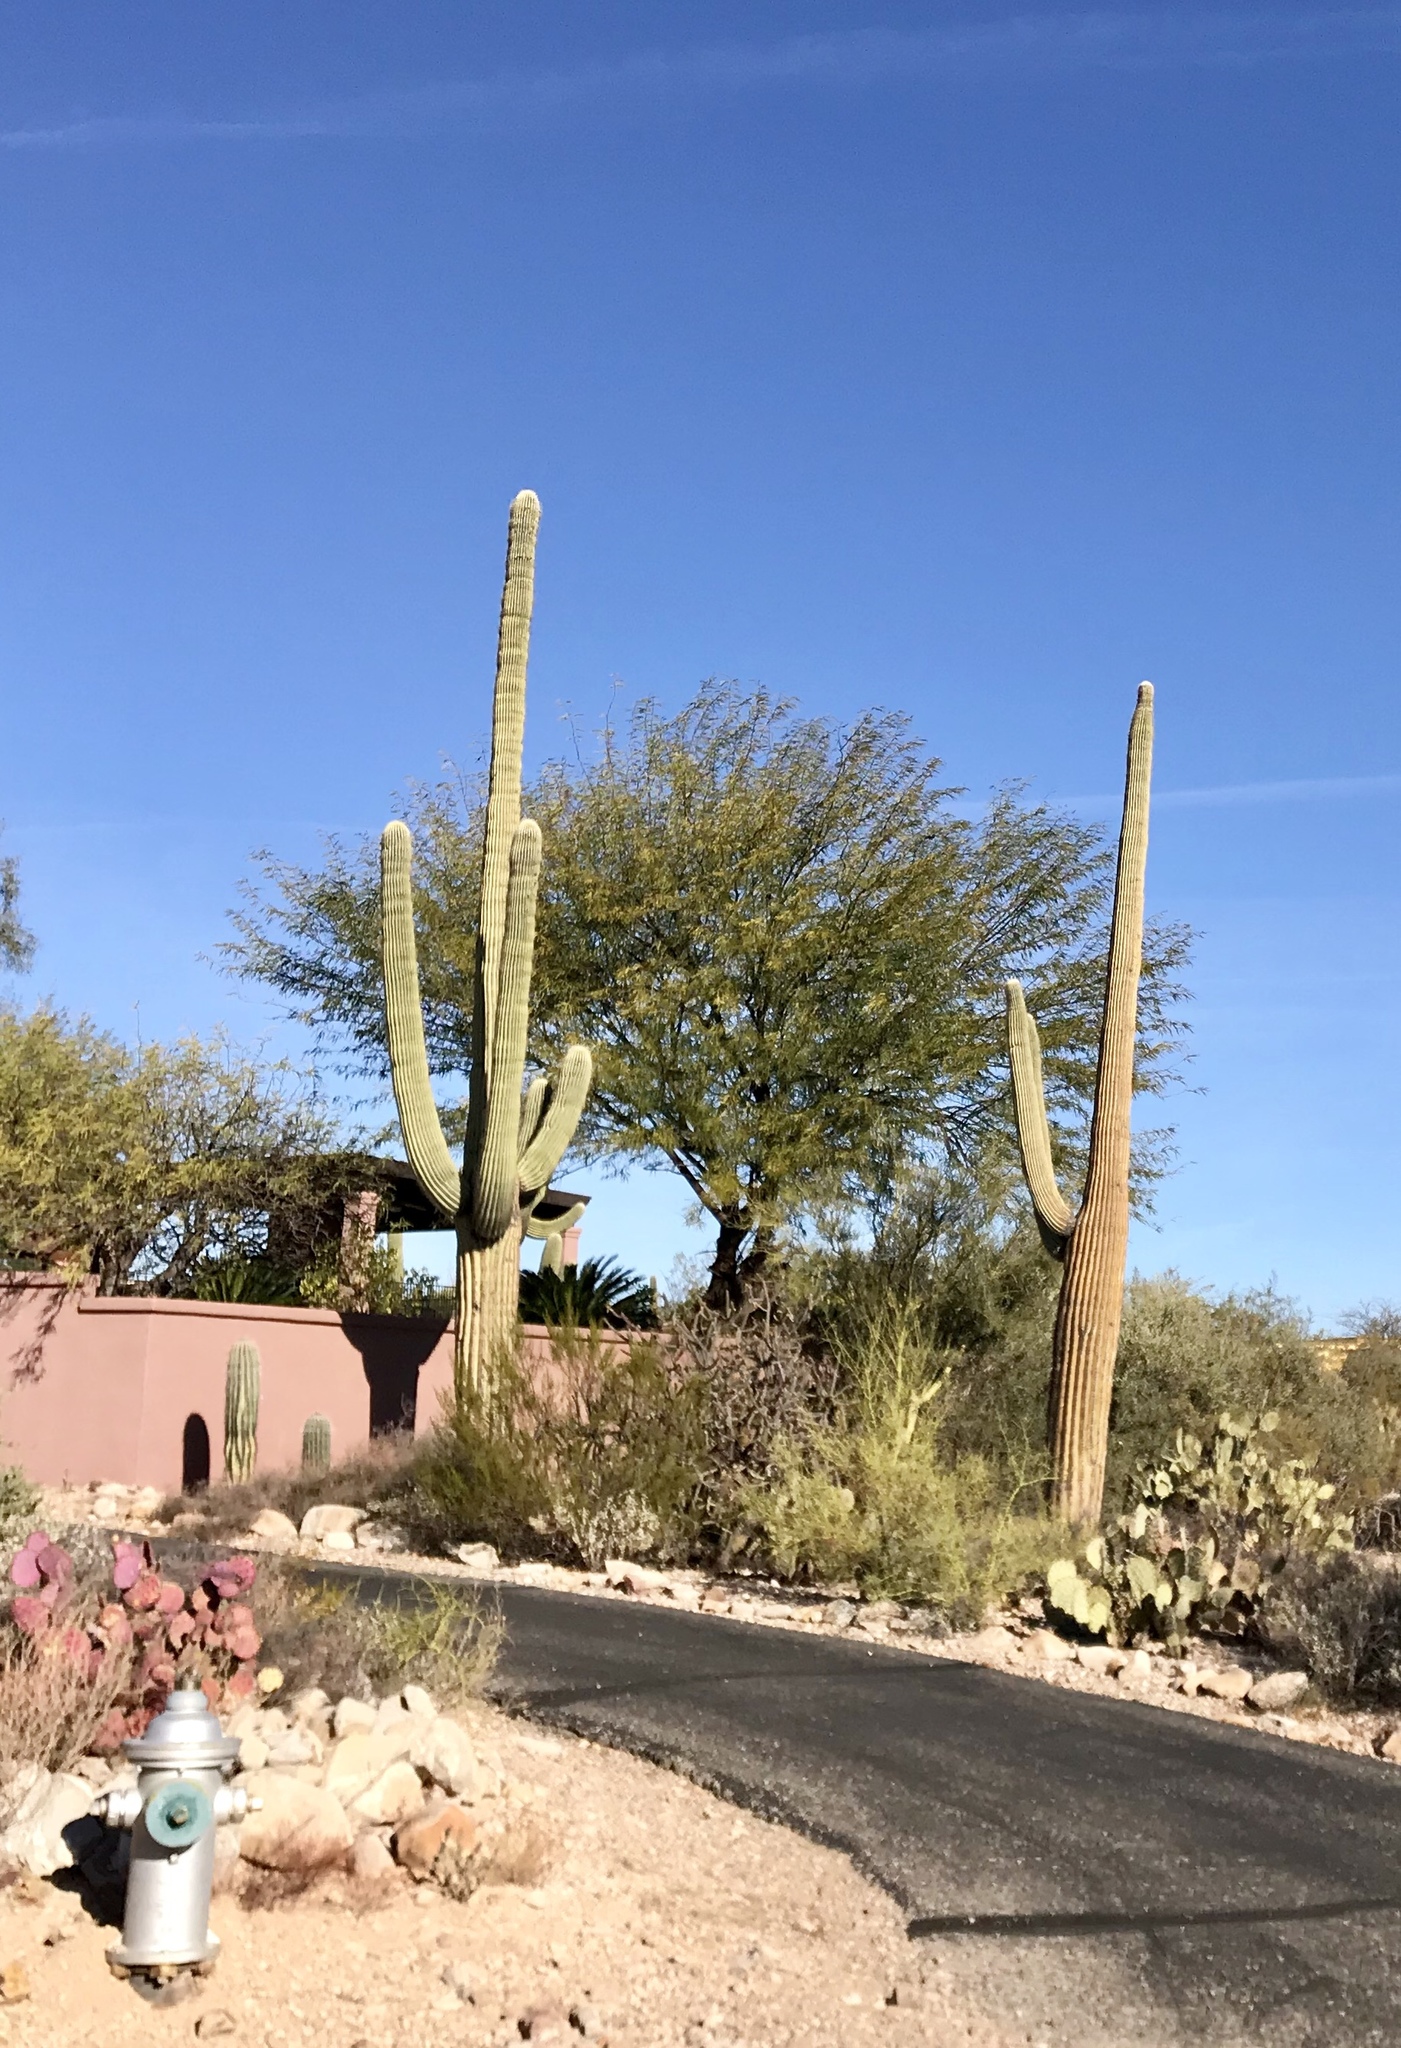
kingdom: Plantae
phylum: Tracheophyta
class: Magnoliopsida
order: Caryophyllales
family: Cactaceae
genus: Carnegiea
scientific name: Carnegiea gigantea
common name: Saguaro
